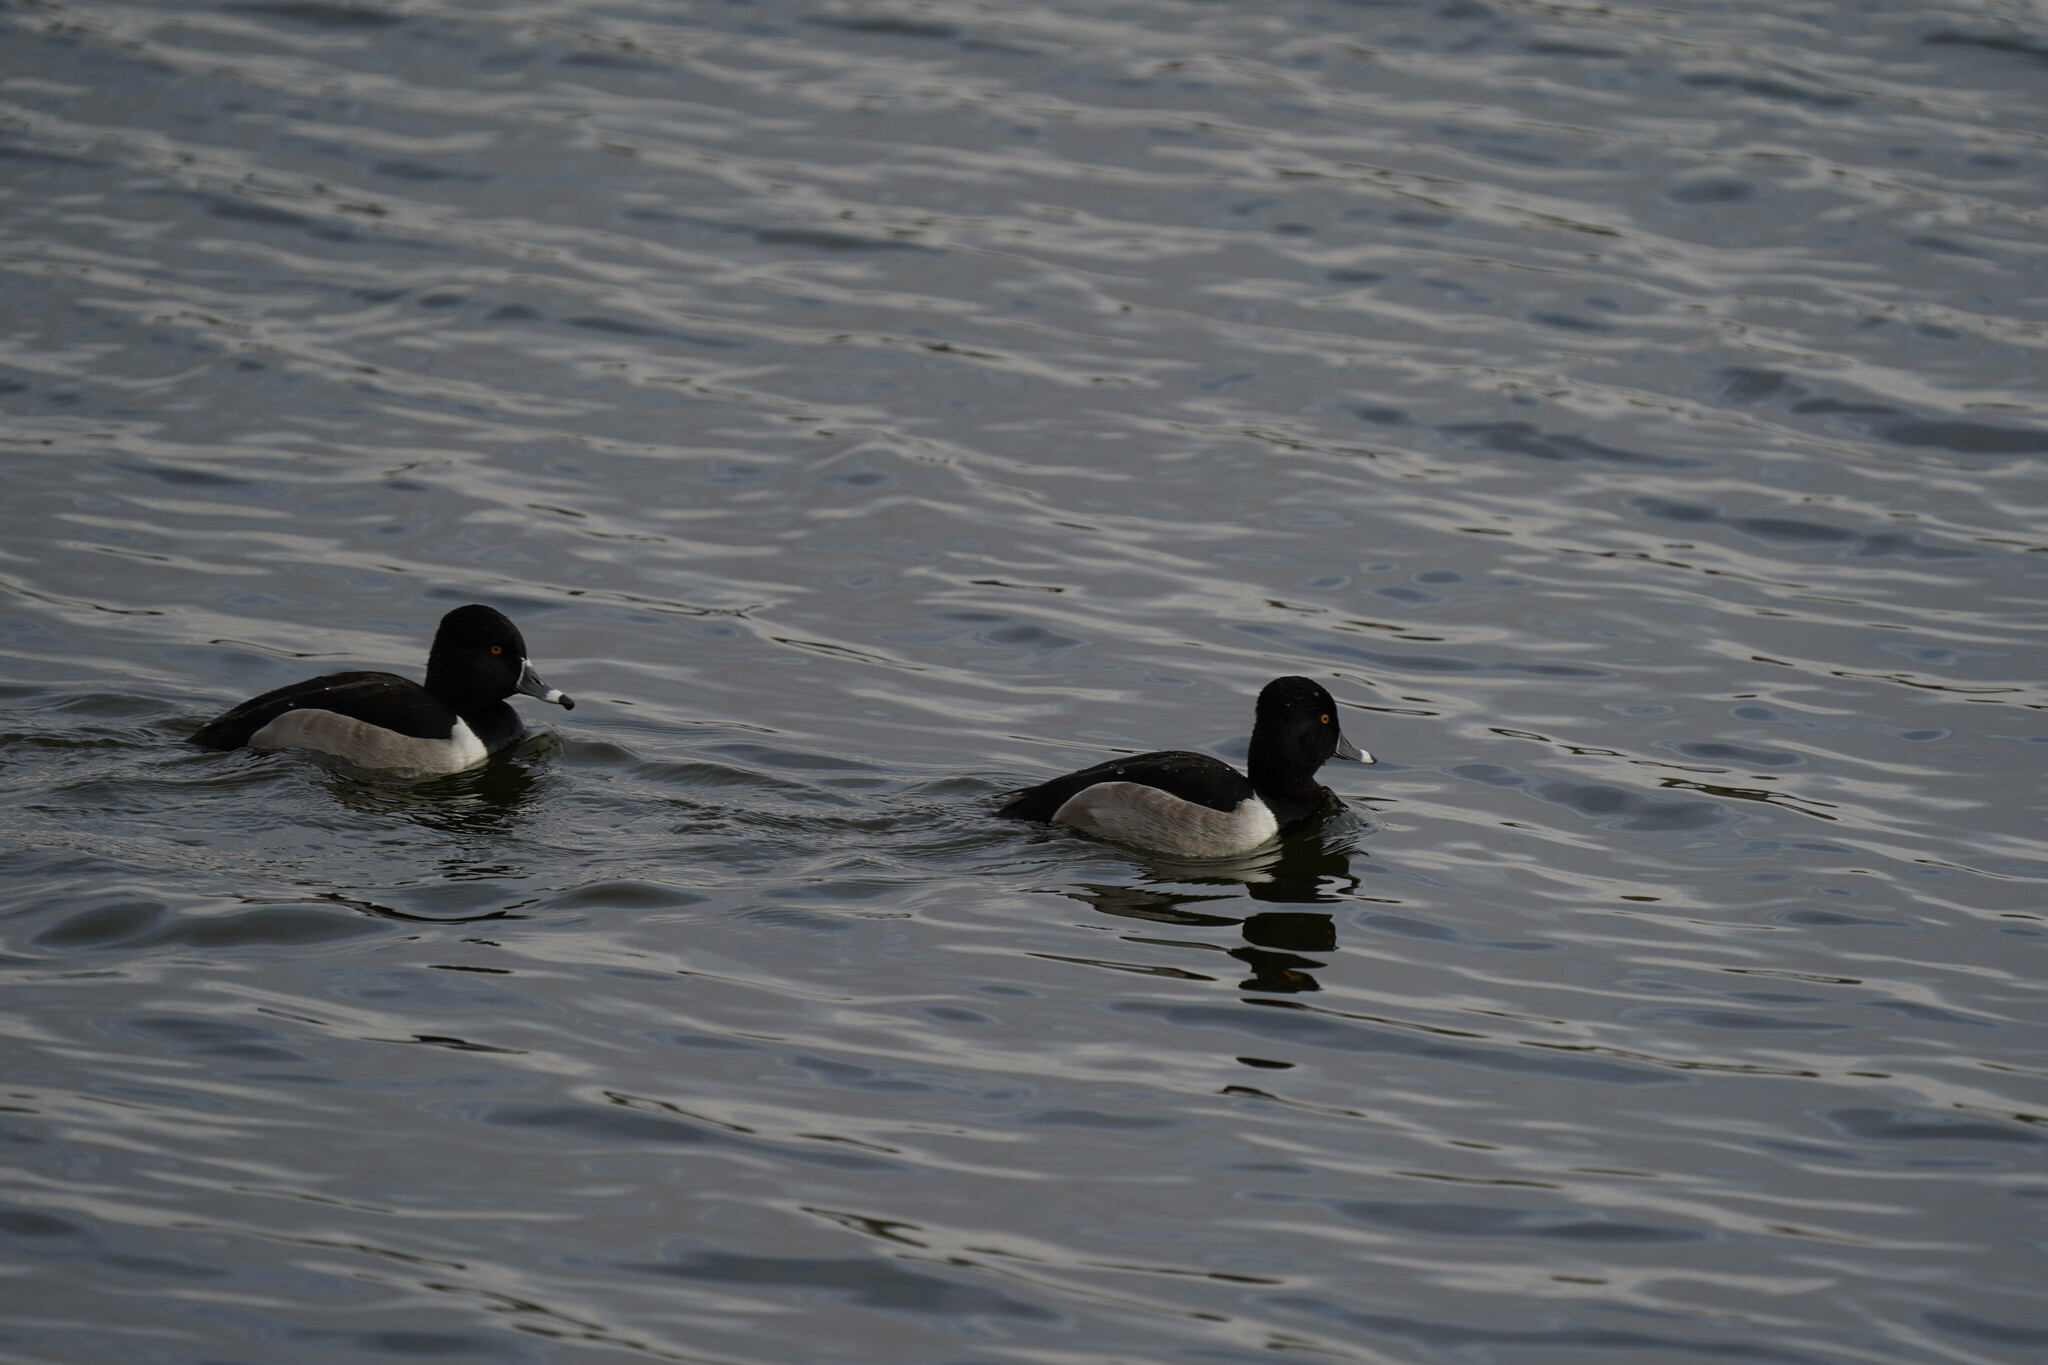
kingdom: Animalia
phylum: Chordata
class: Aves
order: Anseriformes
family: Anatidae
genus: Aythya
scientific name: Aythya collaris
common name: Ring-necked duck
